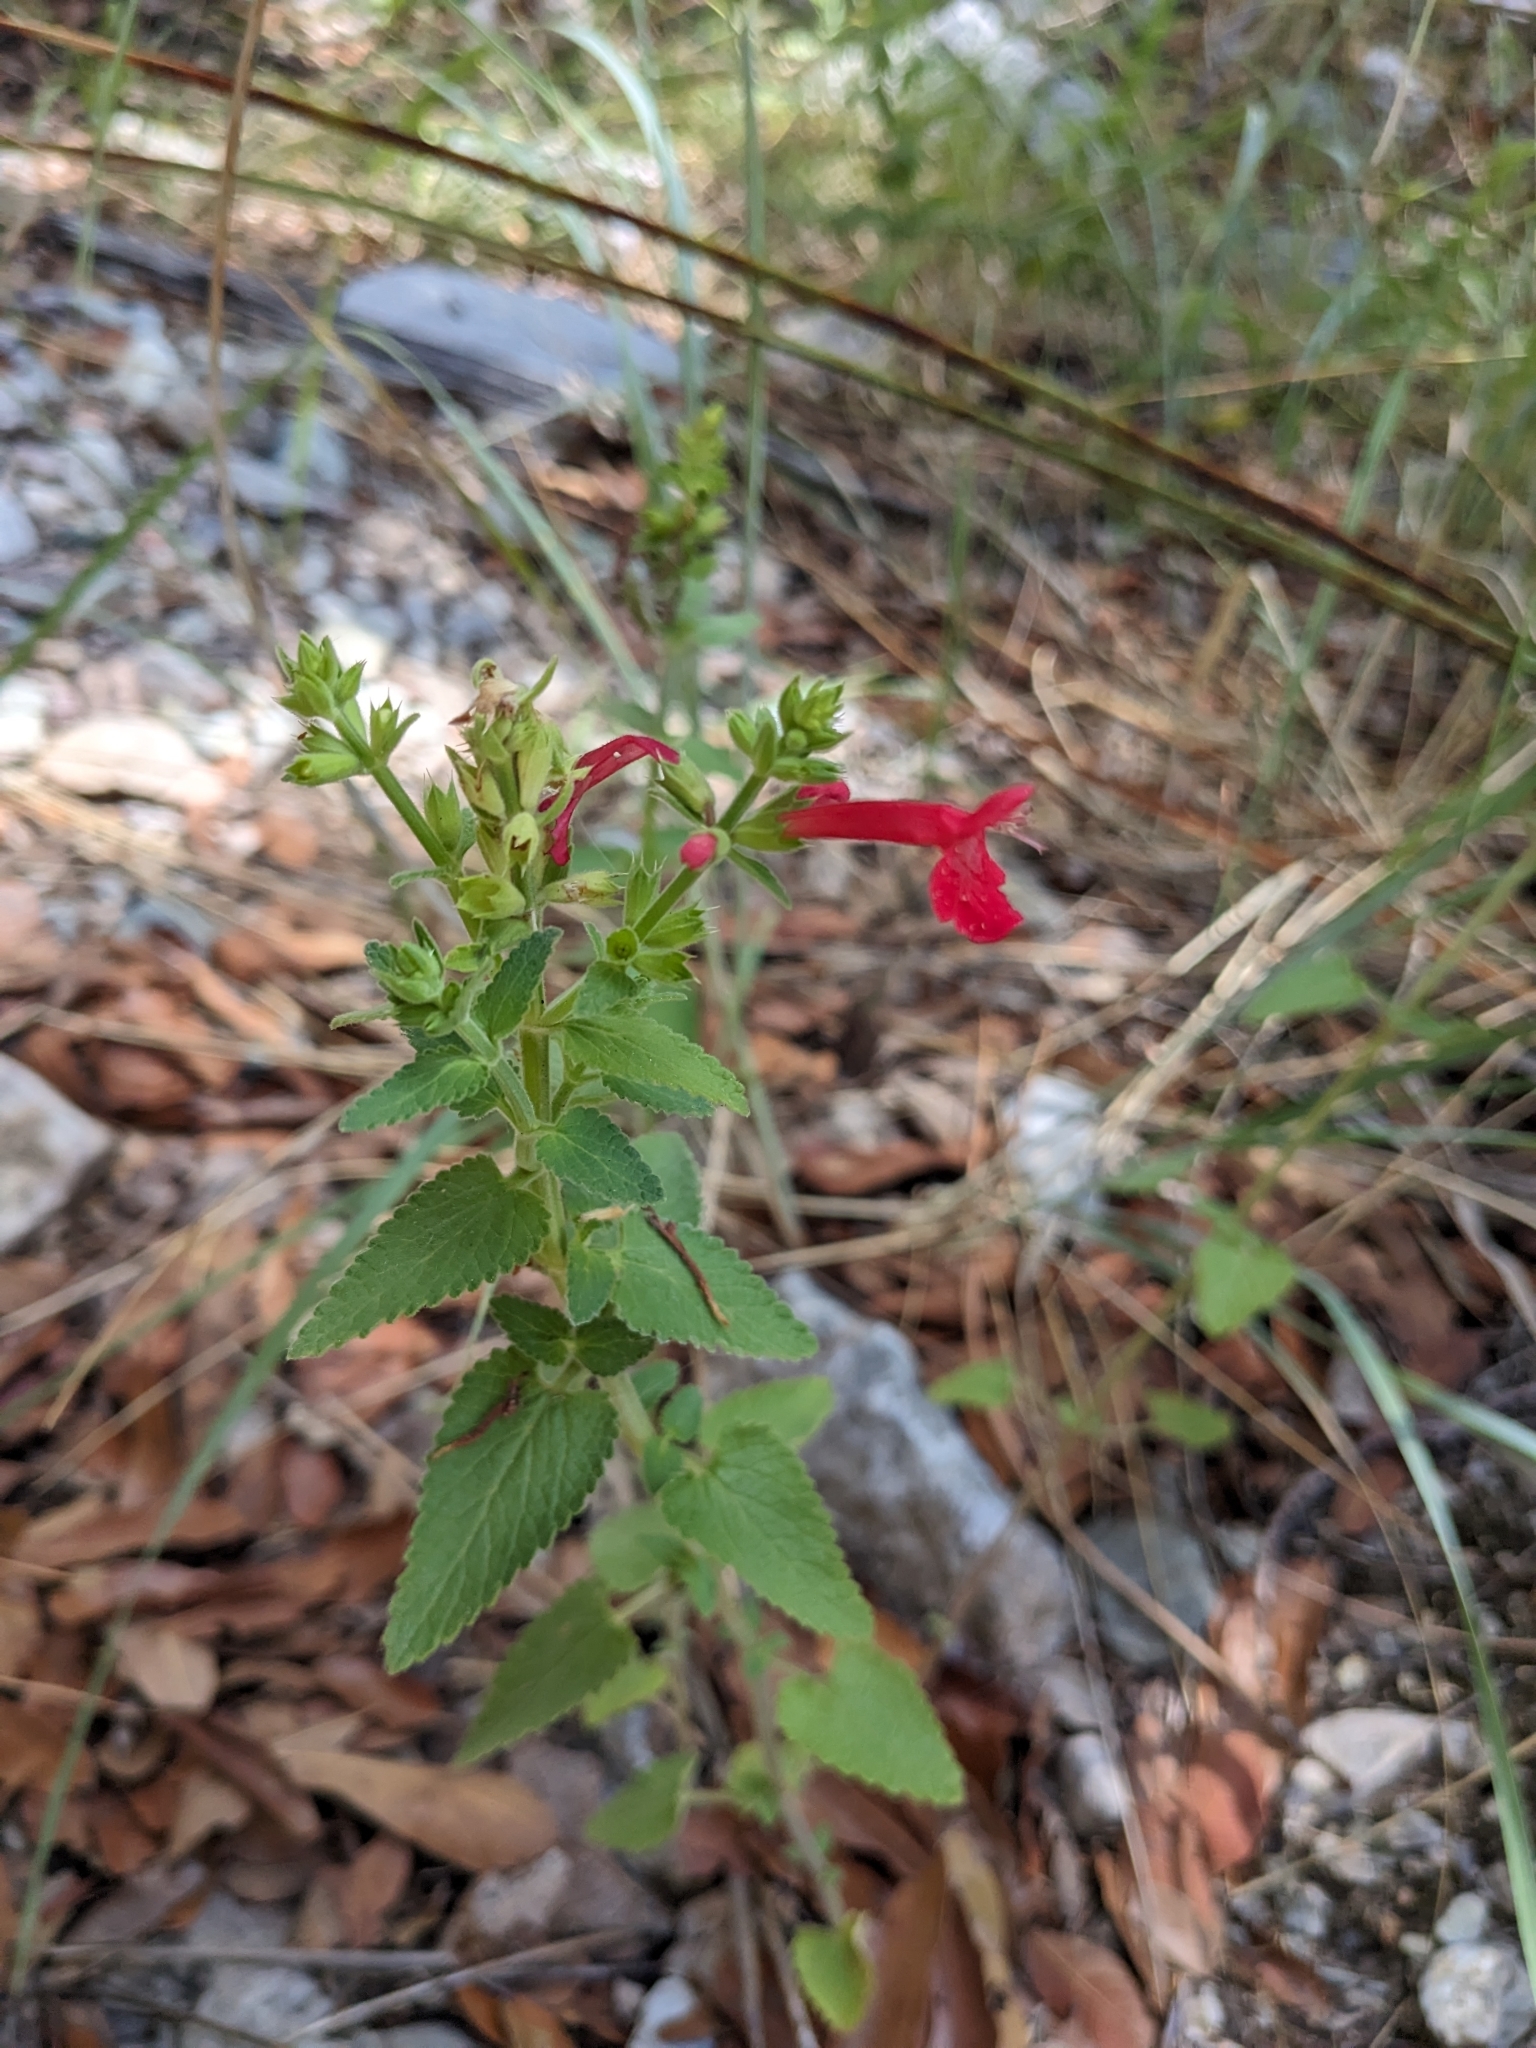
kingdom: Plantae
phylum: Tracheophyta
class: Magnoliopsida
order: Lamiales
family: Lamiaceae
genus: Stachys
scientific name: Stachys coccinea
